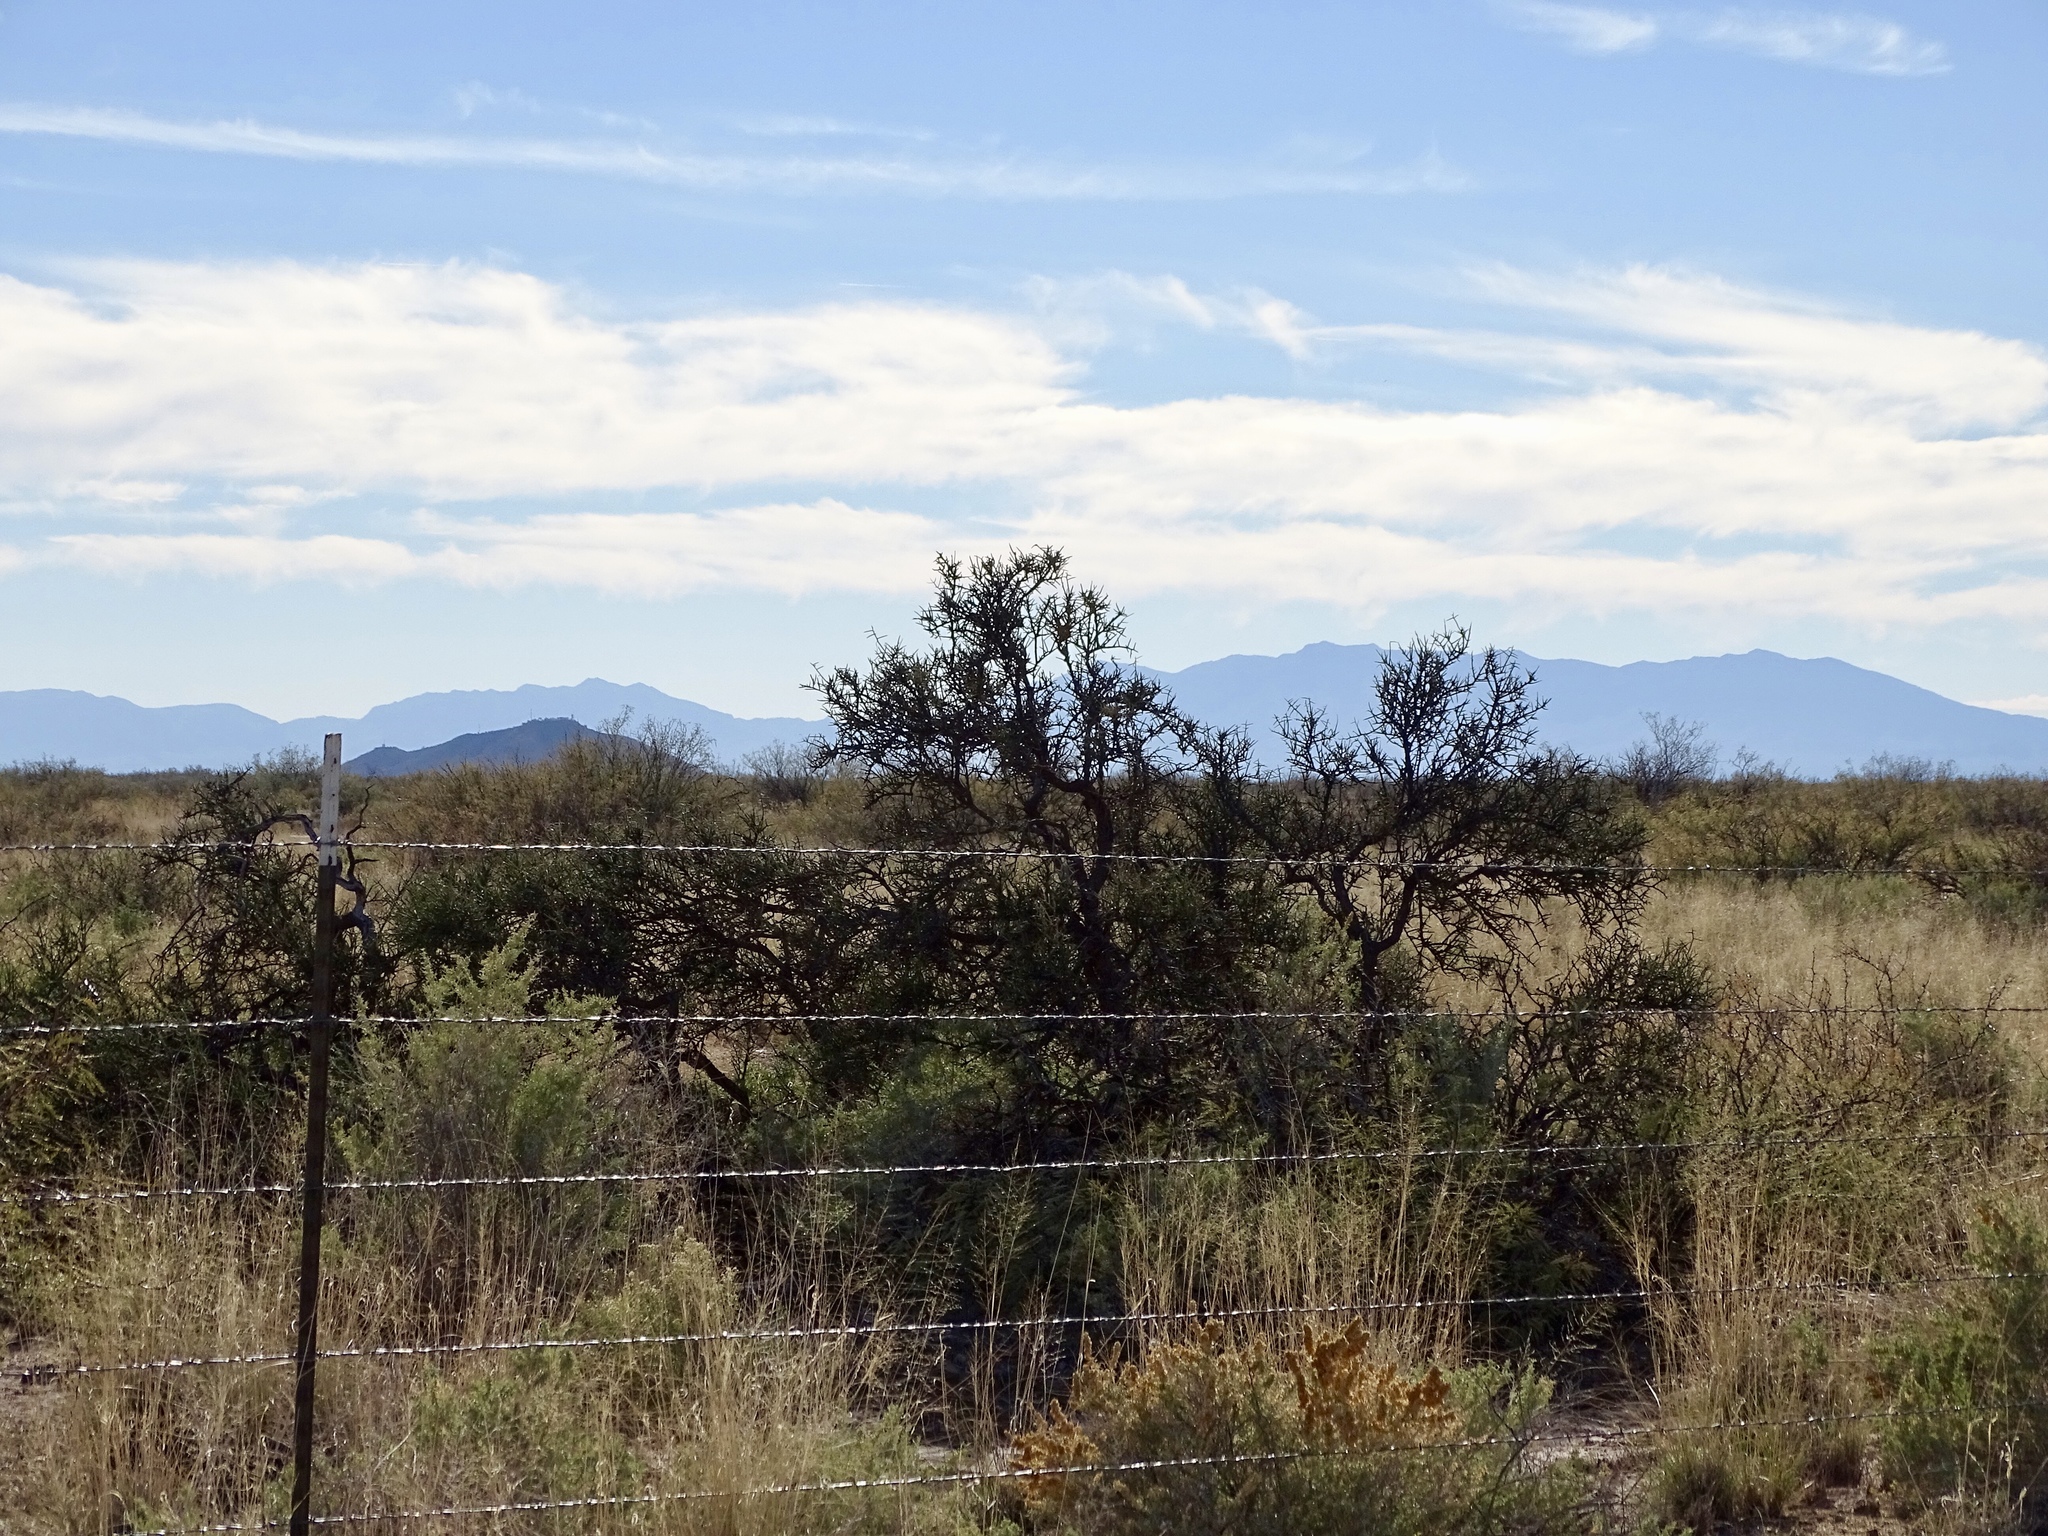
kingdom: Plantae
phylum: Tracheophyta
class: Magnoliopsida
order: Brassicales
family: Koeberliniaceae
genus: Koeberlinia
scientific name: Koeberlinia spinosa
